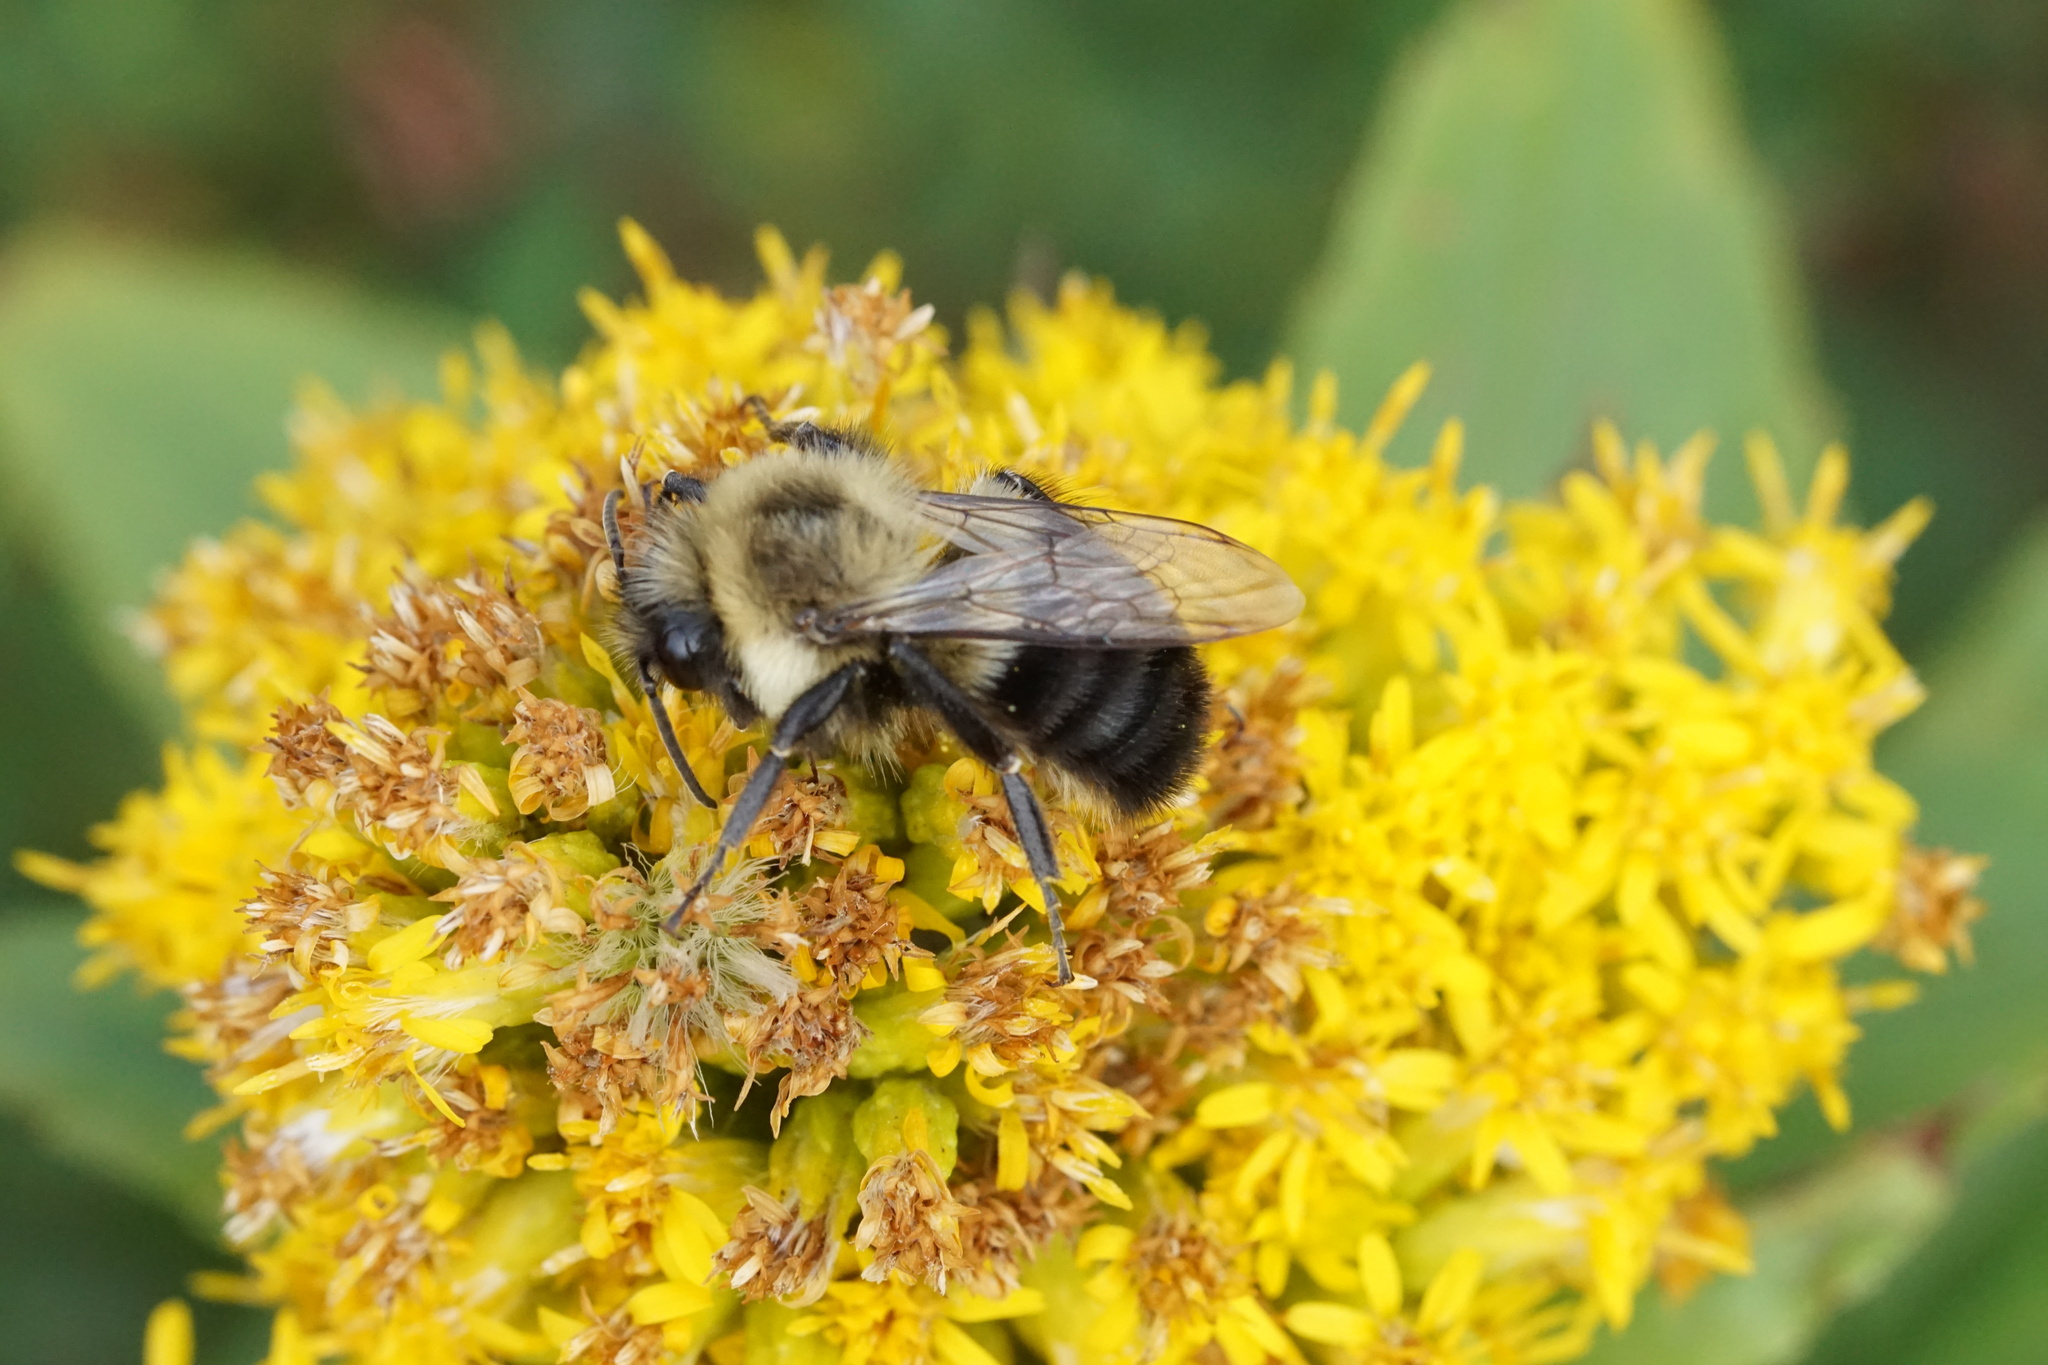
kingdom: Animalia
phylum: Arthropoda
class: Insecta
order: Hymenoptera
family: Apidae
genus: Bombus
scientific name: Bombus impatiens
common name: Common eastern bumble bee
